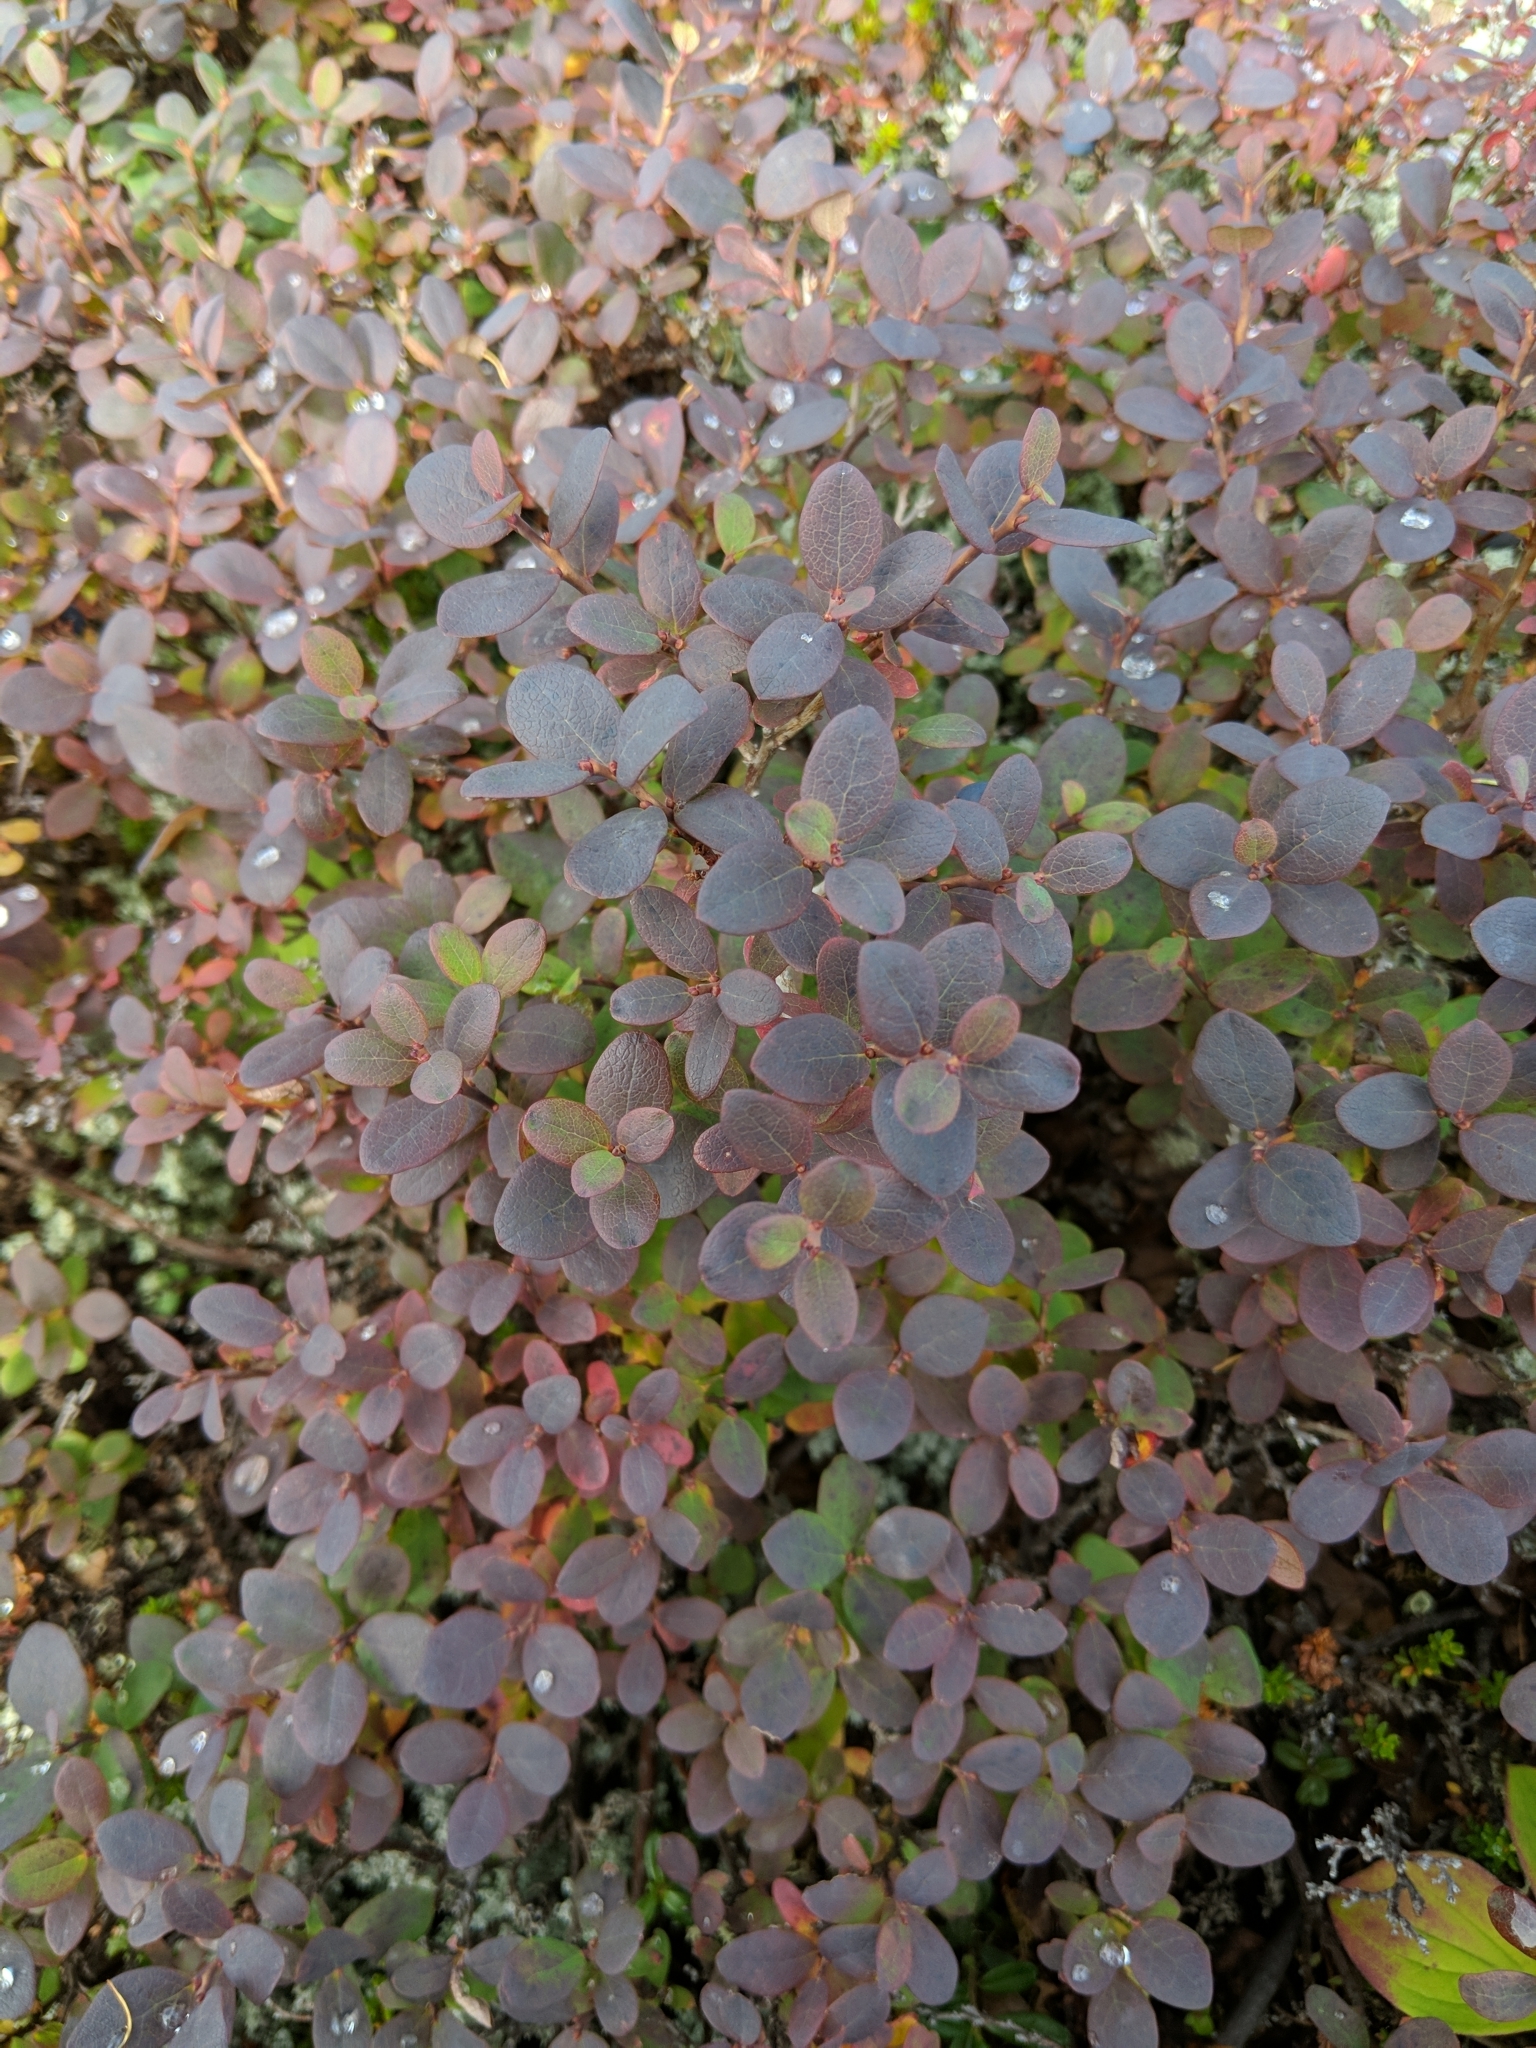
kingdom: Plantae
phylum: Tracheophyta
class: Magnoliopsida
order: Ericales
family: Ericaceae
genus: Vaccinium
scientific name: Vaccinium uliginosum
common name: Bog bilberry
